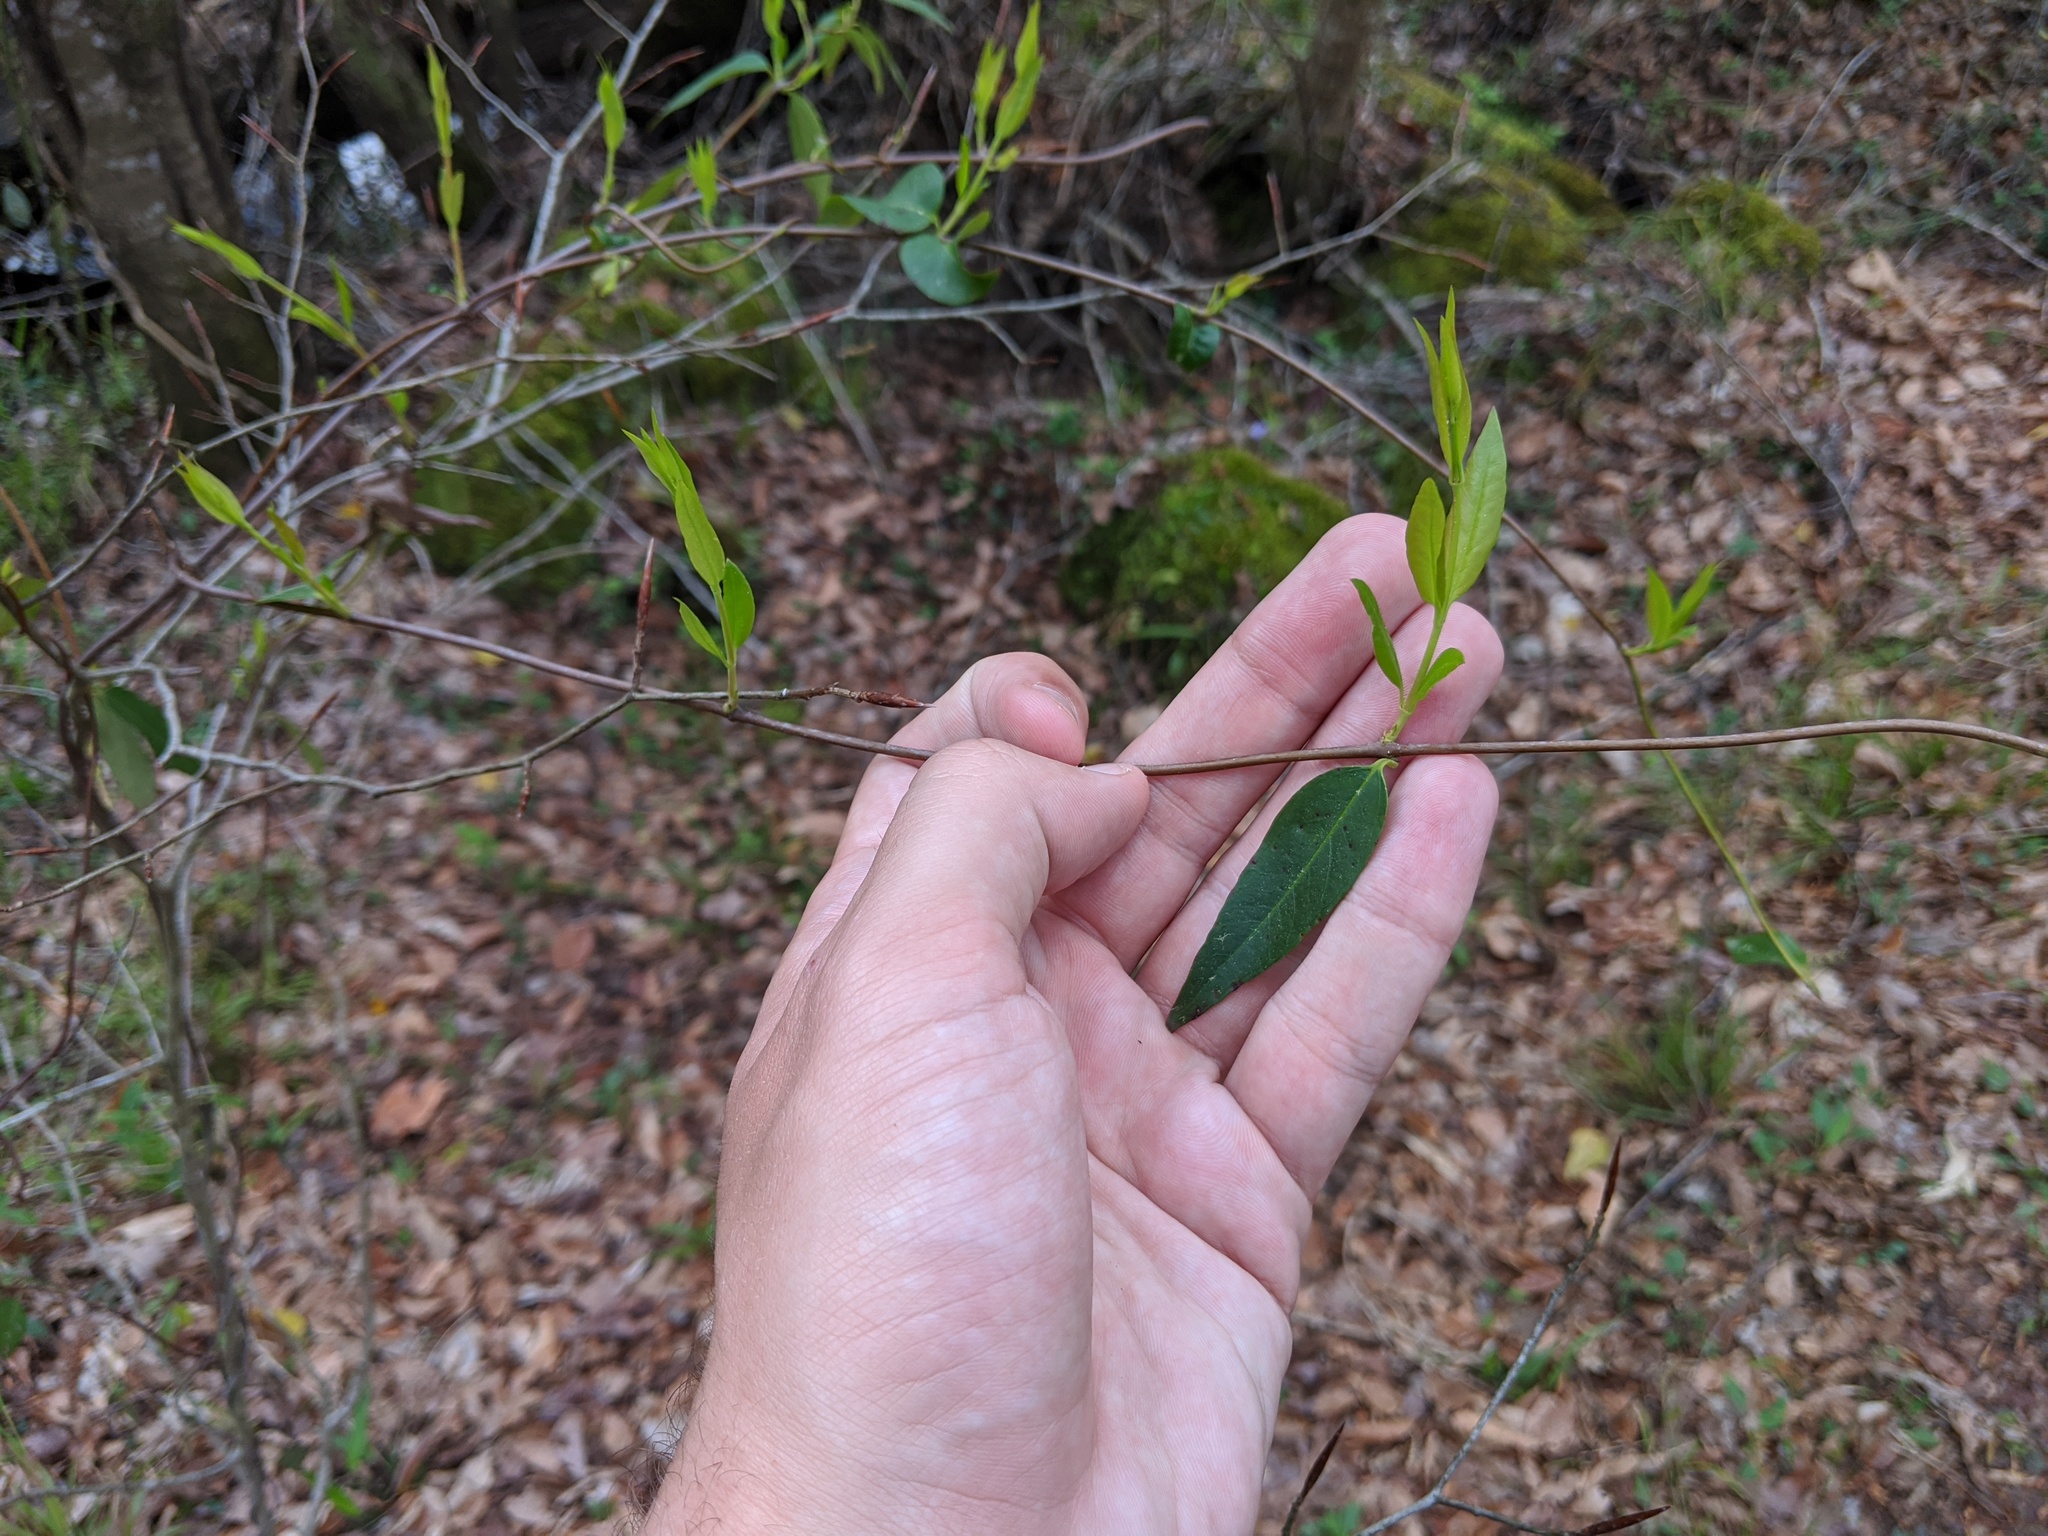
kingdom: Plantae
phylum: Tracheophyta
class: Magnoliopsida
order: Gentianales
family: Gelsemiaceae
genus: Gelsemium
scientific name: Gelsemium sempervirens
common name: Carolina-jasmine
